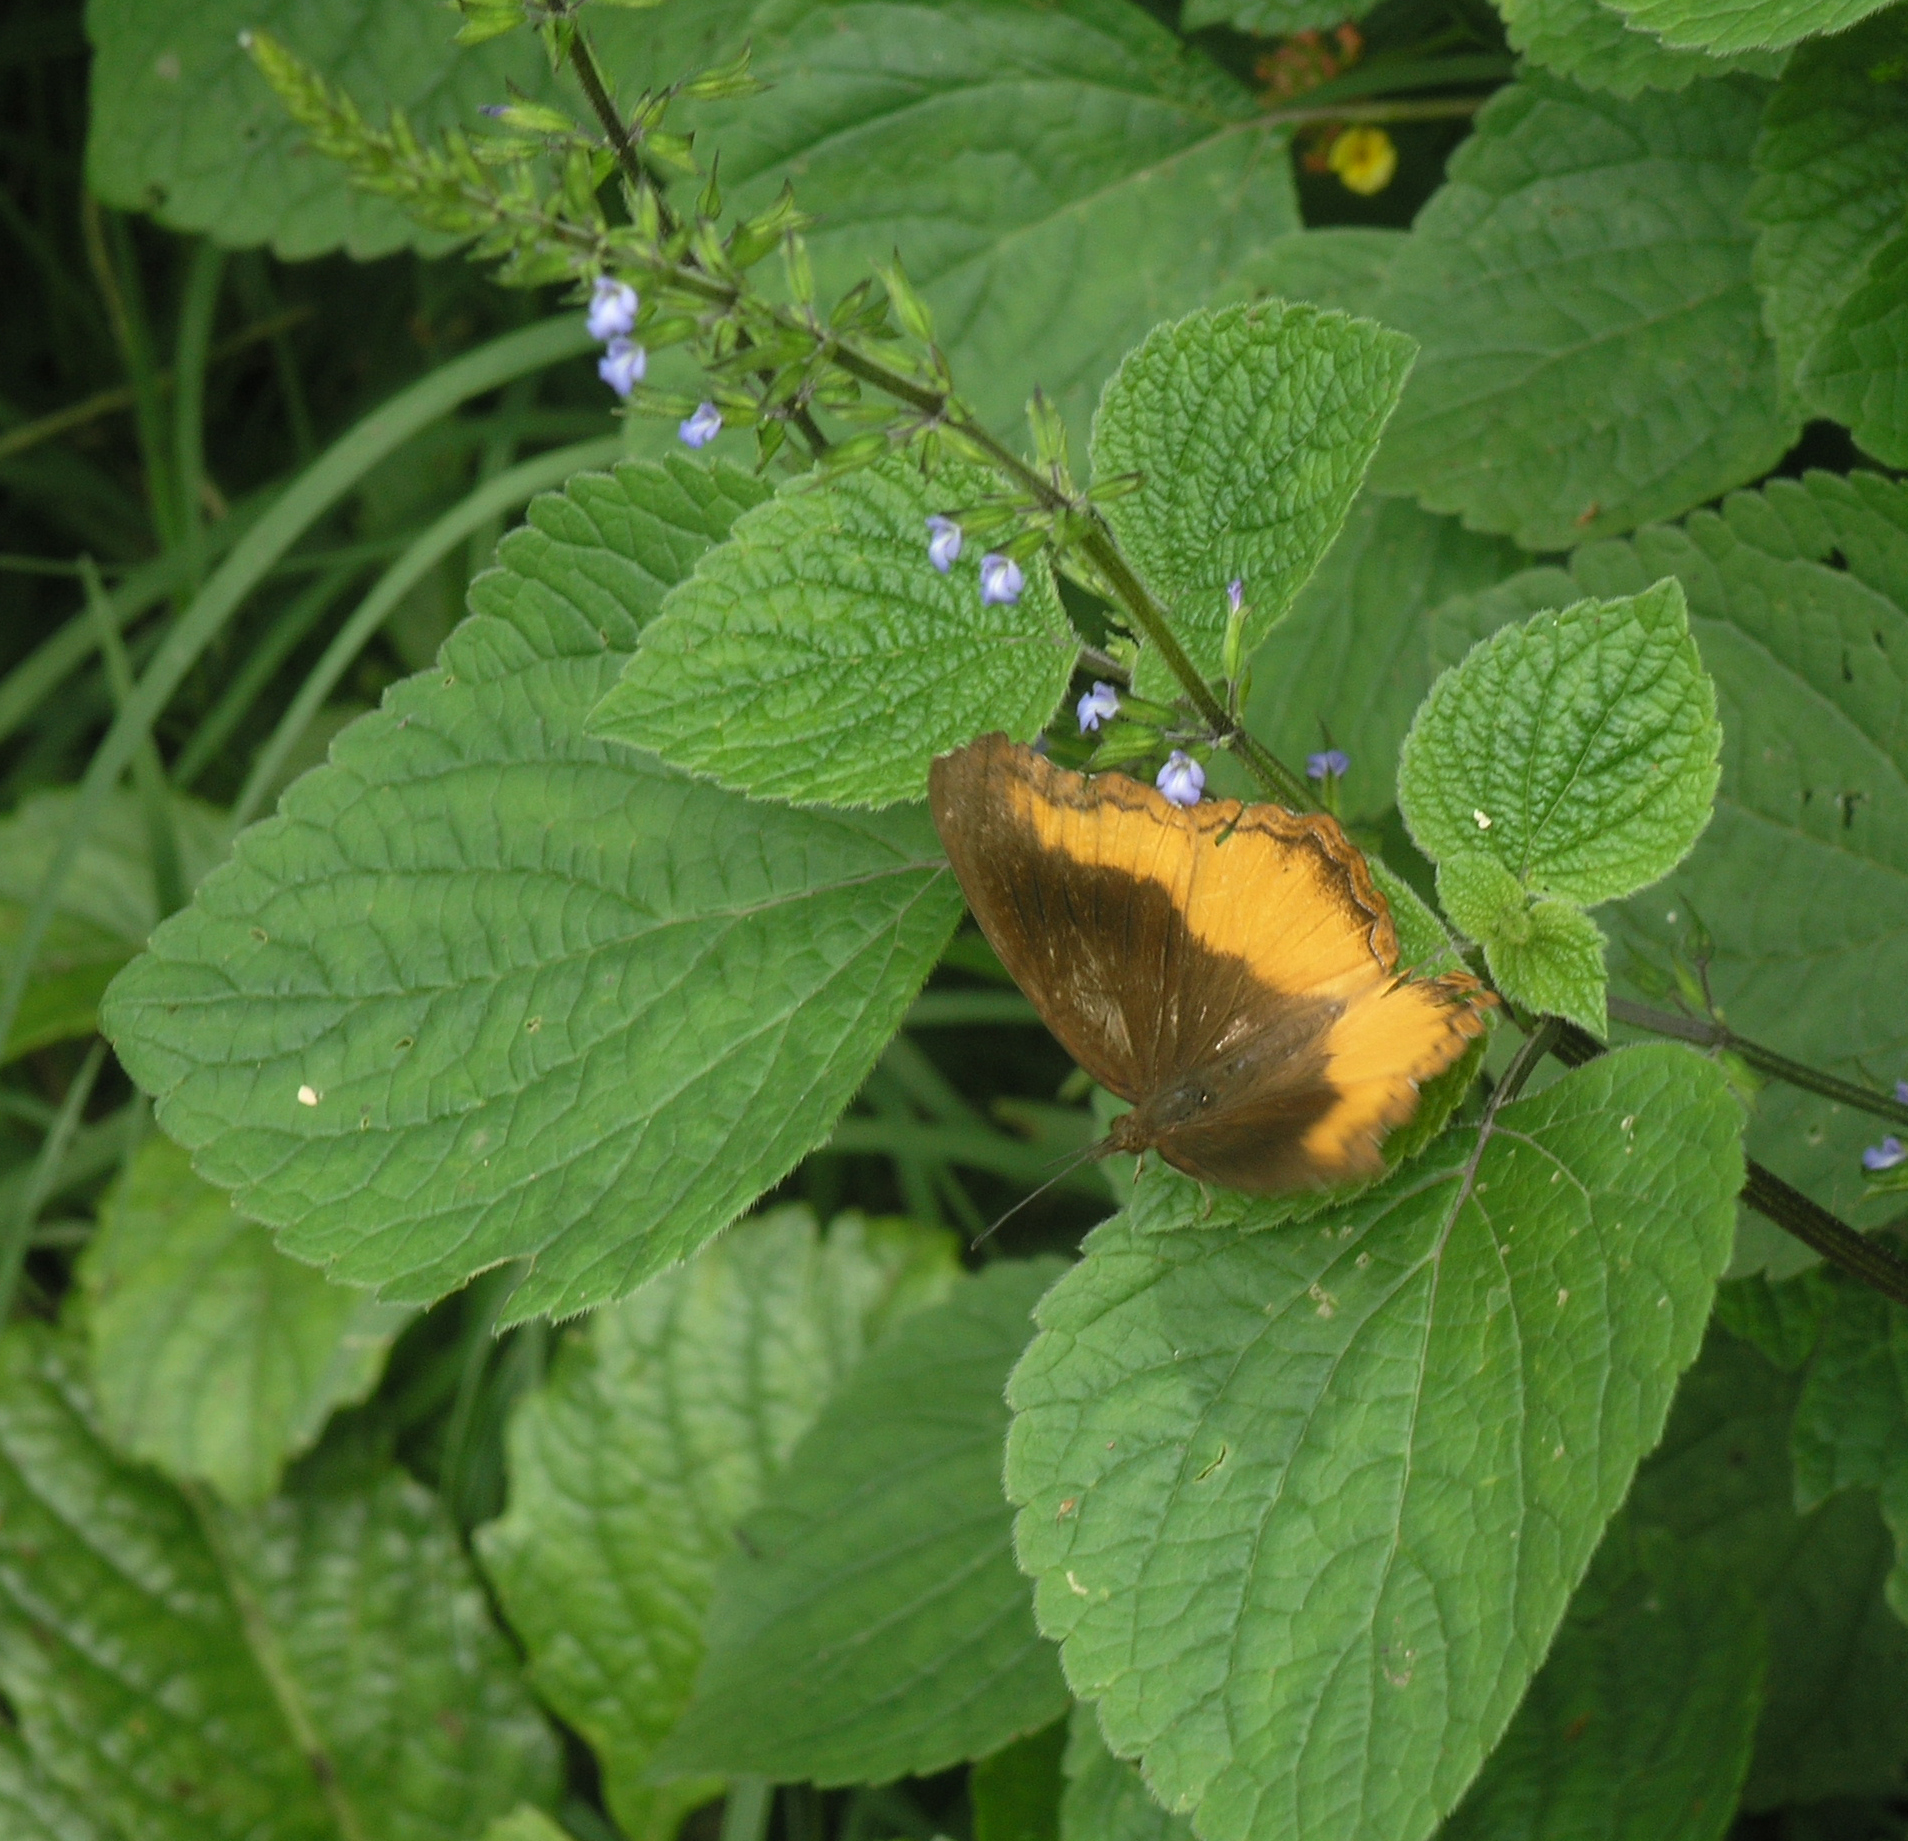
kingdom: Animalia
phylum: Arthropoda
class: Insecta
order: Lepidoptera
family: Nymphalidae
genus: Eurytela
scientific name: Eurytela dryope
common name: Golden piper
